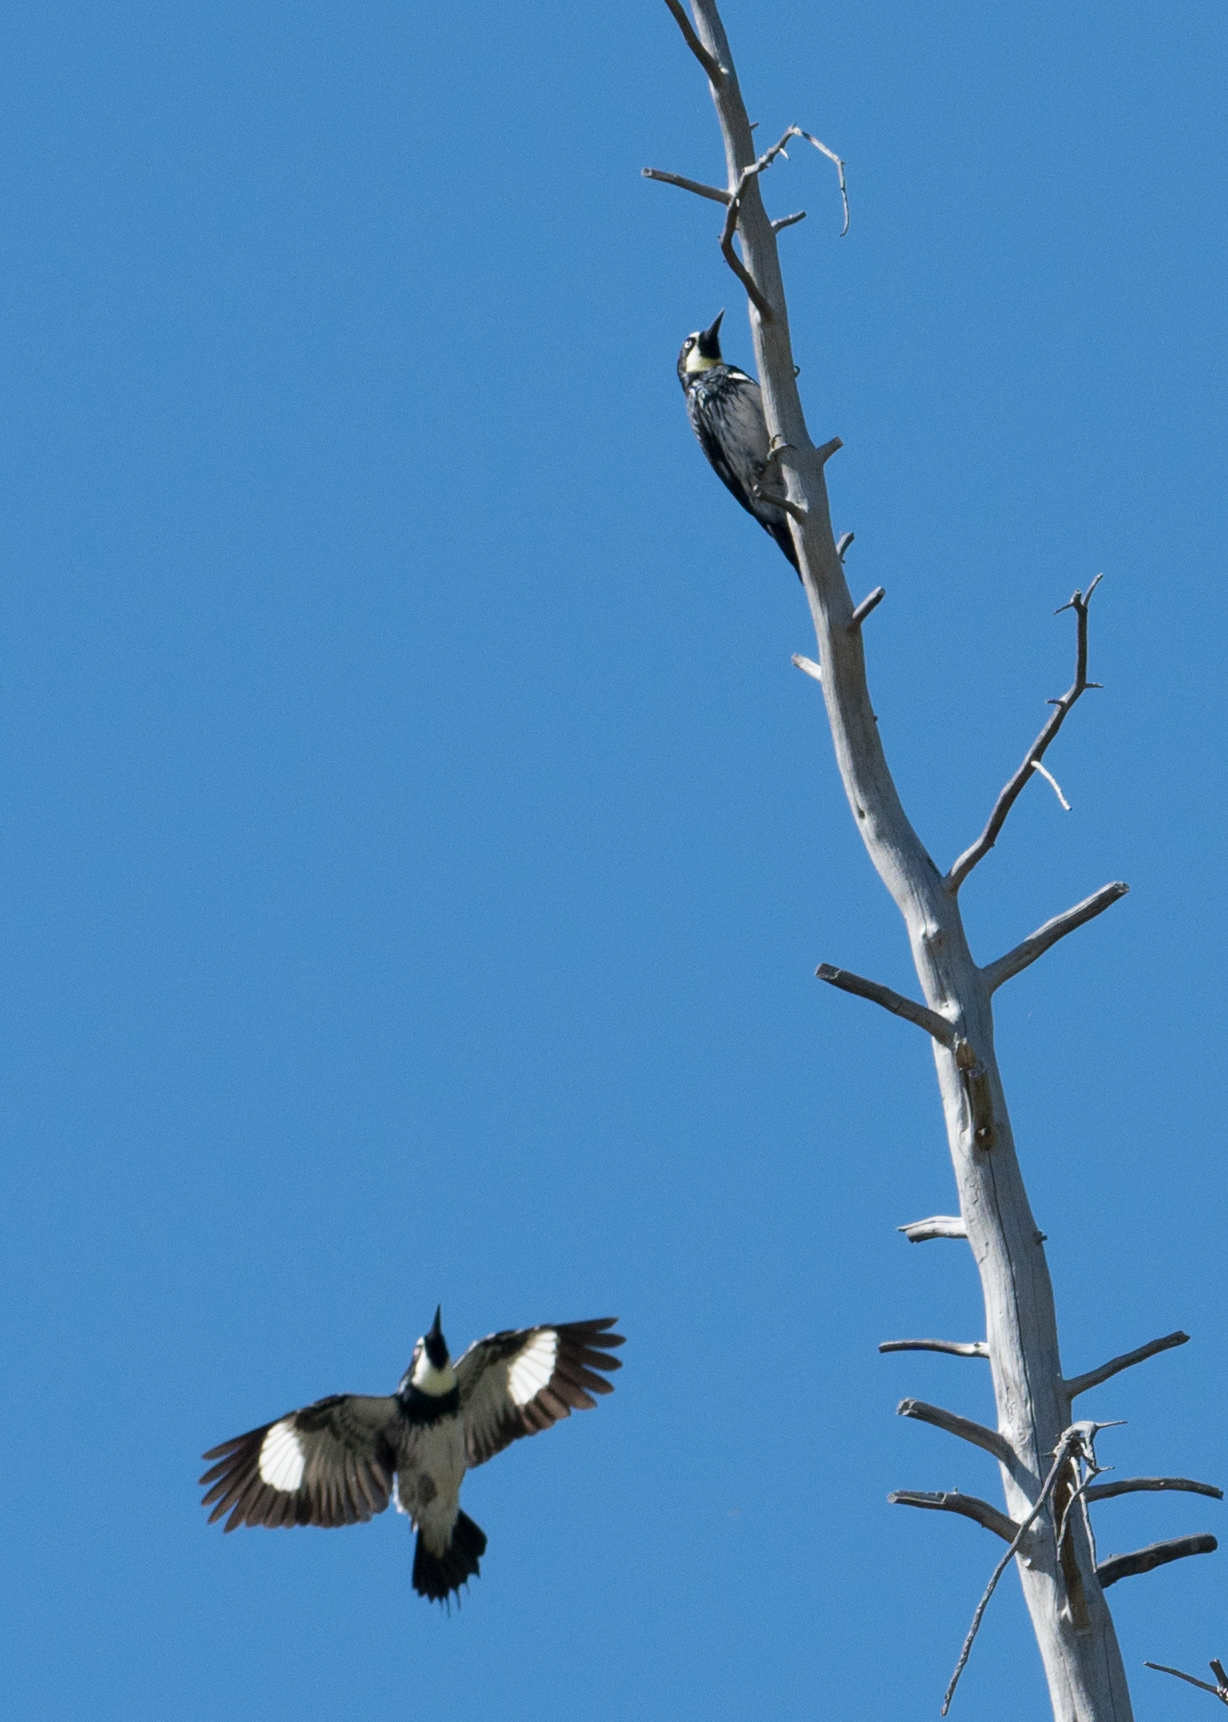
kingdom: Animalia
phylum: Chordata
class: Aves
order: Piciformes
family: Picidae
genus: Melanerpes
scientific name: Melanerpes formicivorus
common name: Acorn woodpecker
